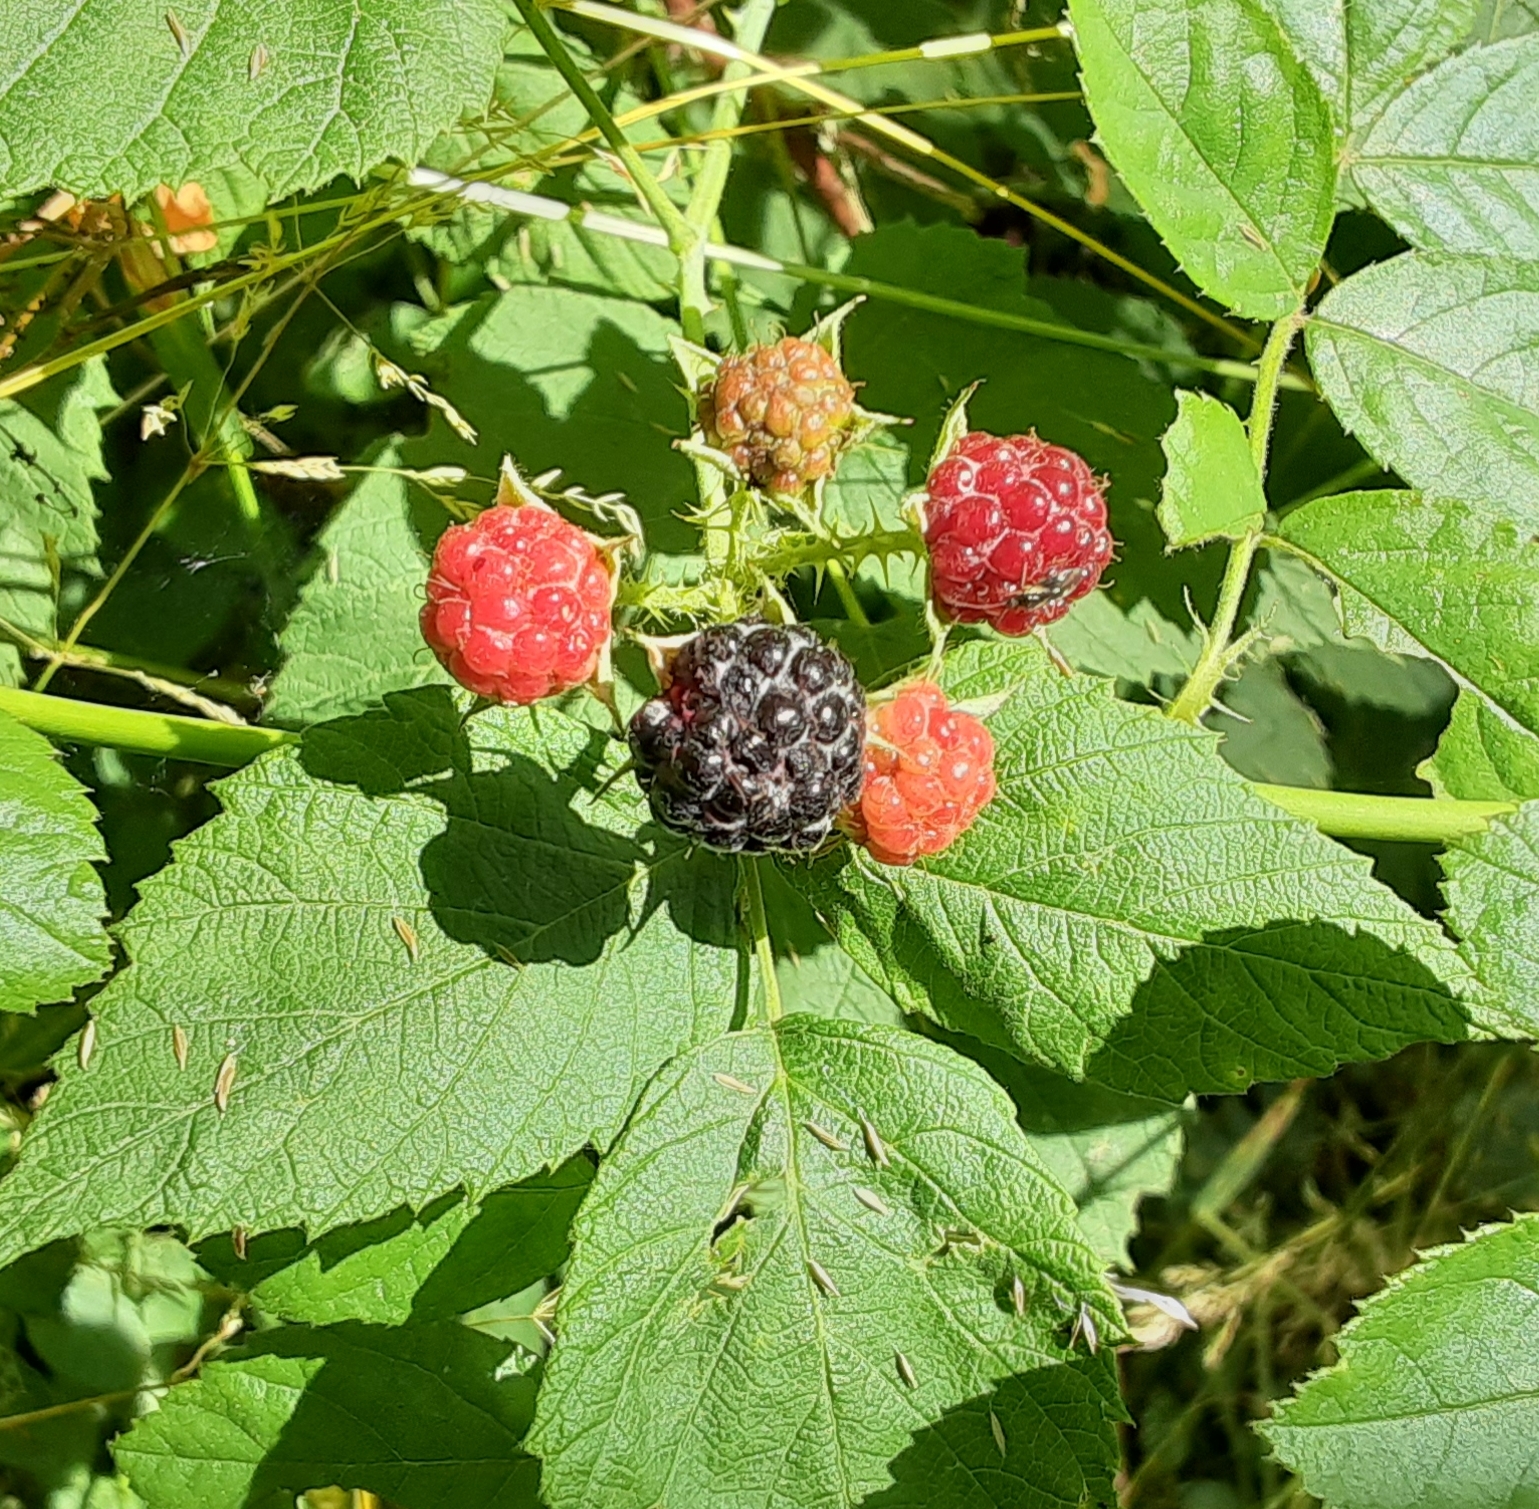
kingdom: Plantae
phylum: Tracheophyta
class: Magnoliopsida
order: Rosales
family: Rosaceae
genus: Rubus
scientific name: Rubus occidentalis
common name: Black raspberry
